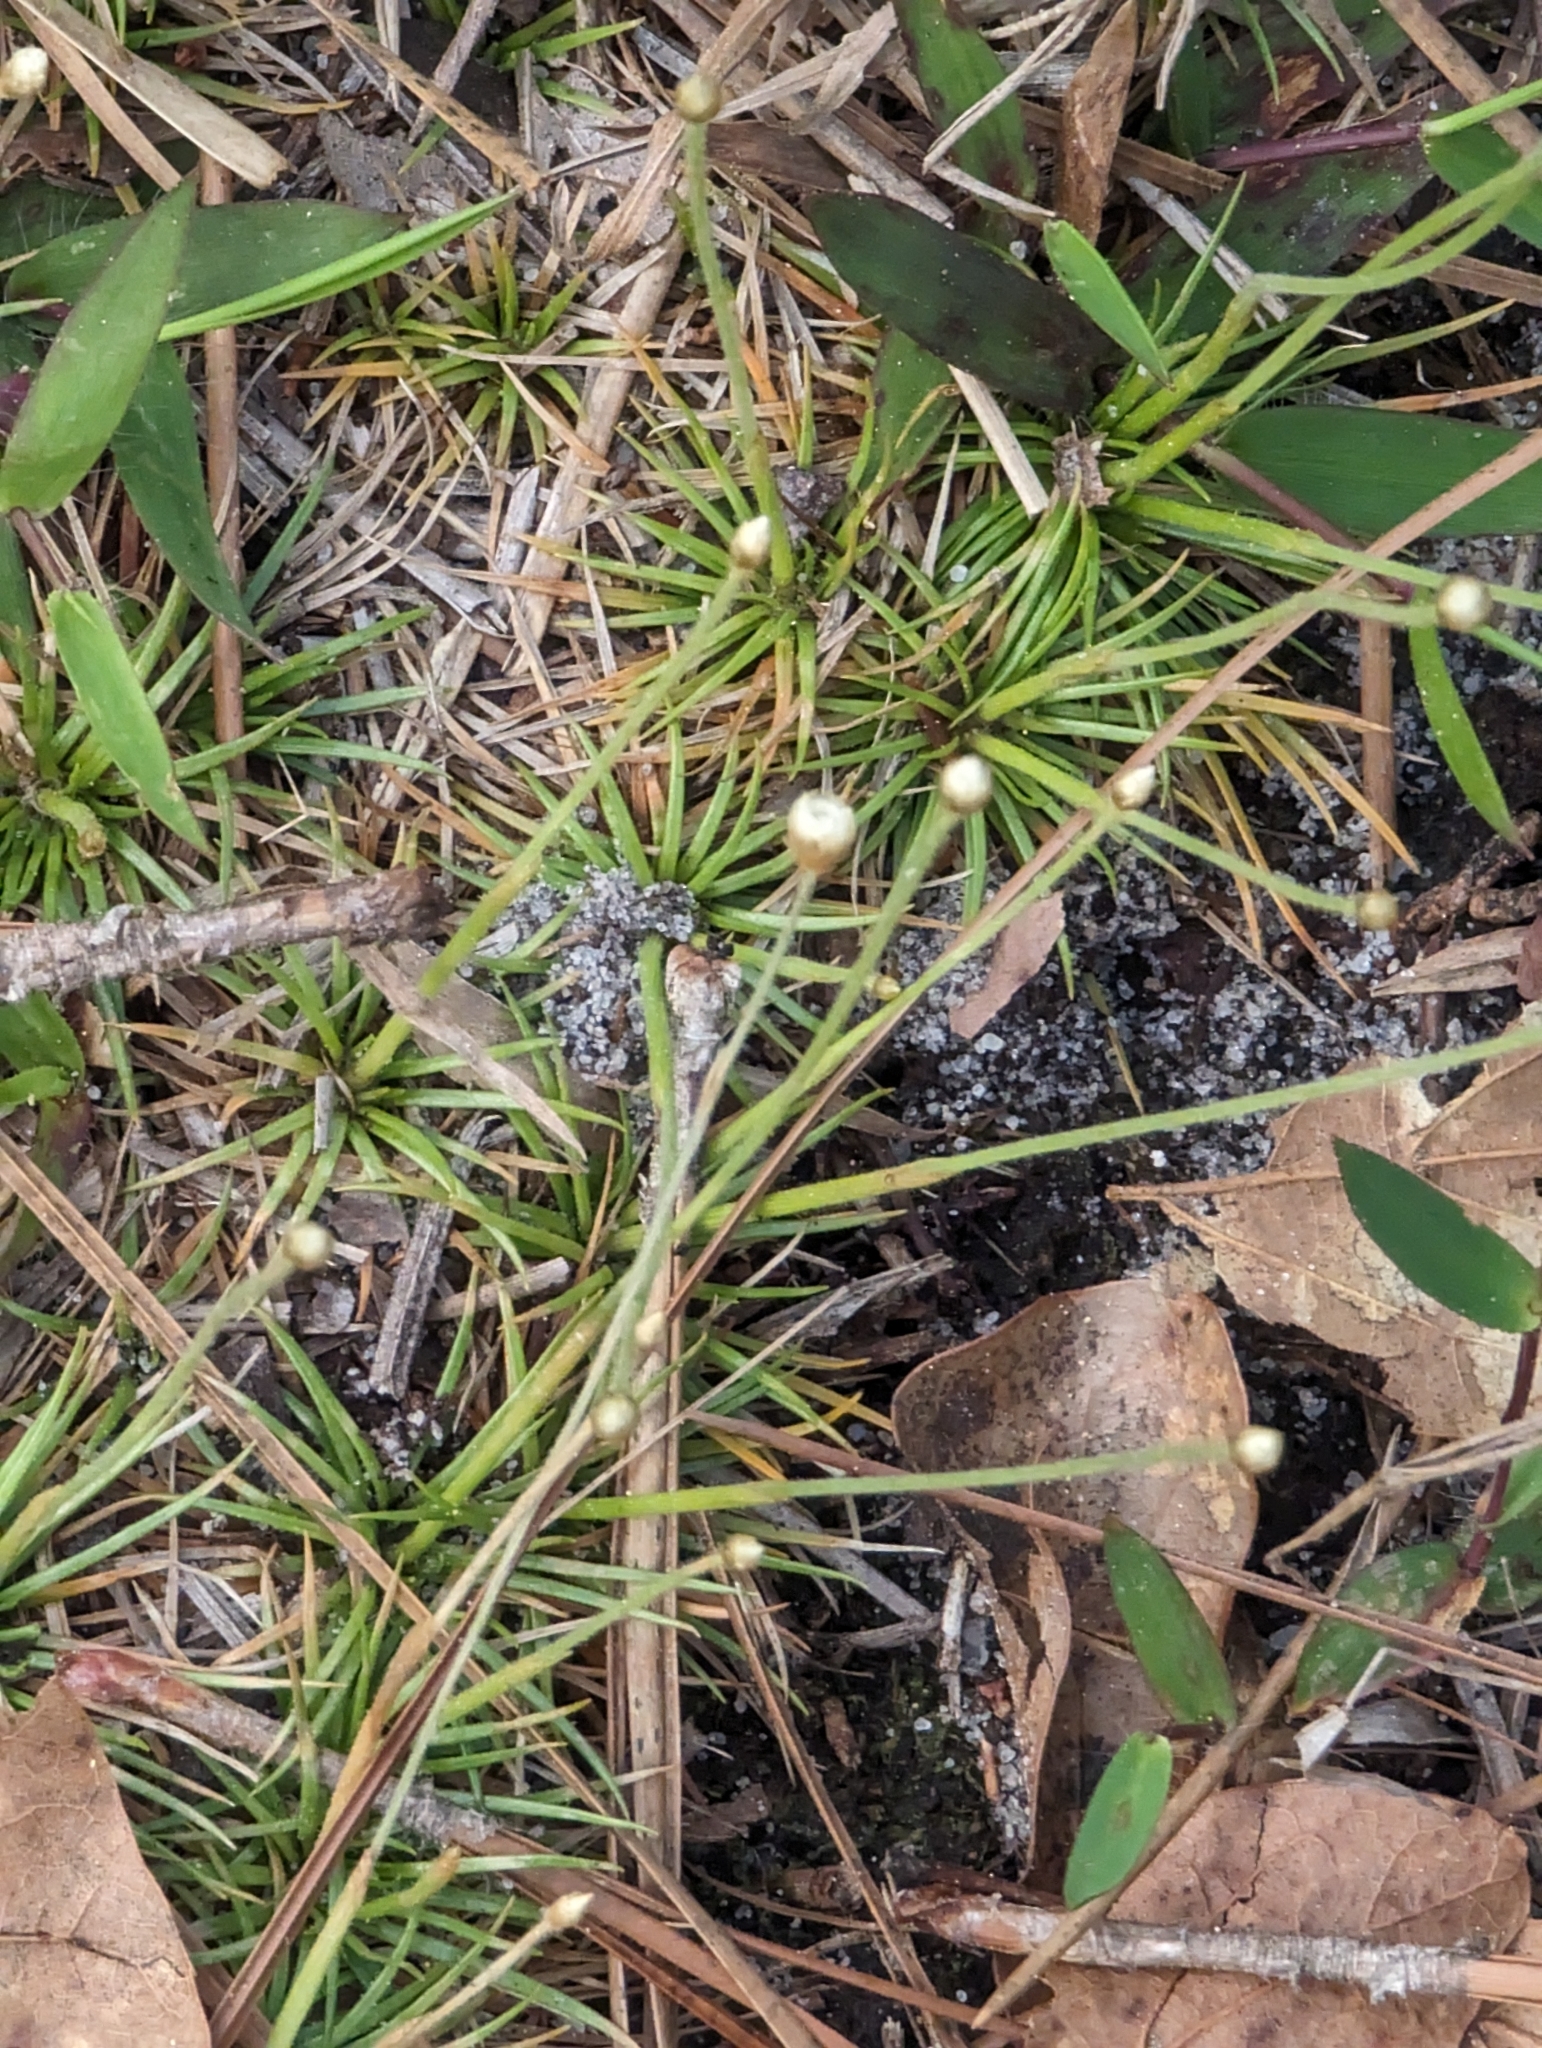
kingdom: Plantae
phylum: Tracheophyta
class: Liliopsida
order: Poales
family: Eriocaulaceae
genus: Syngonanthus
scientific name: Syngonanthus flavidulus
